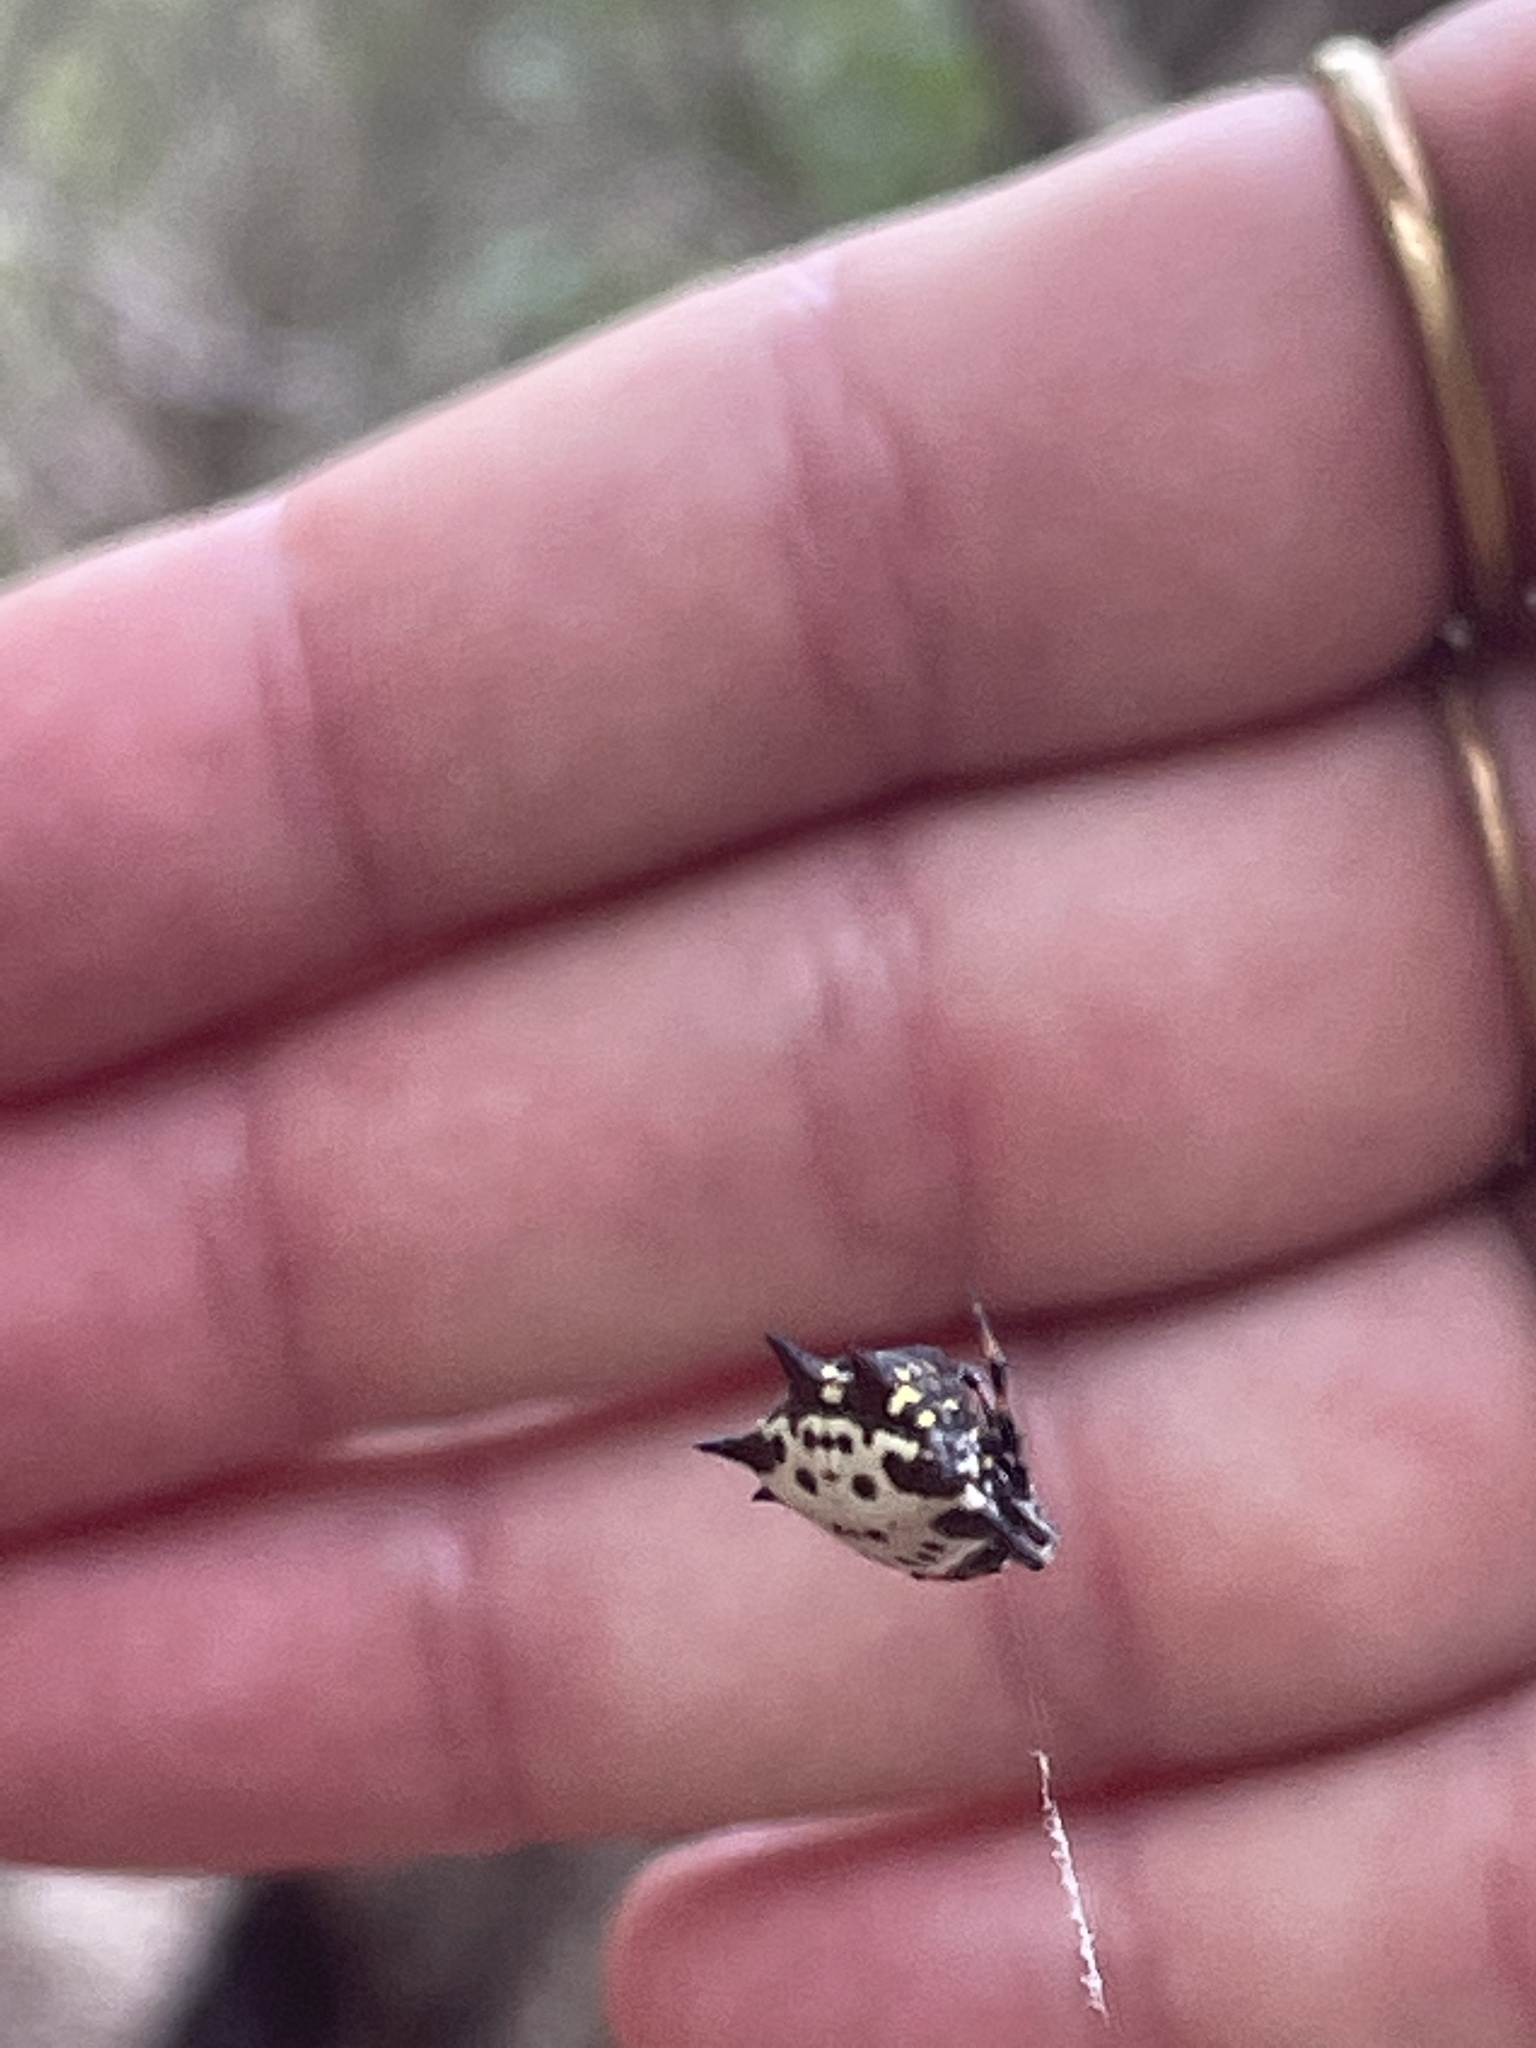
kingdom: Animalia
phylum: Arthropoda
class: Arachnida
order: Araneae
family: Araneidae
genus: Gasteracantha
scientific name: Gasteracantha cancriformis
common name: Orb weavers
